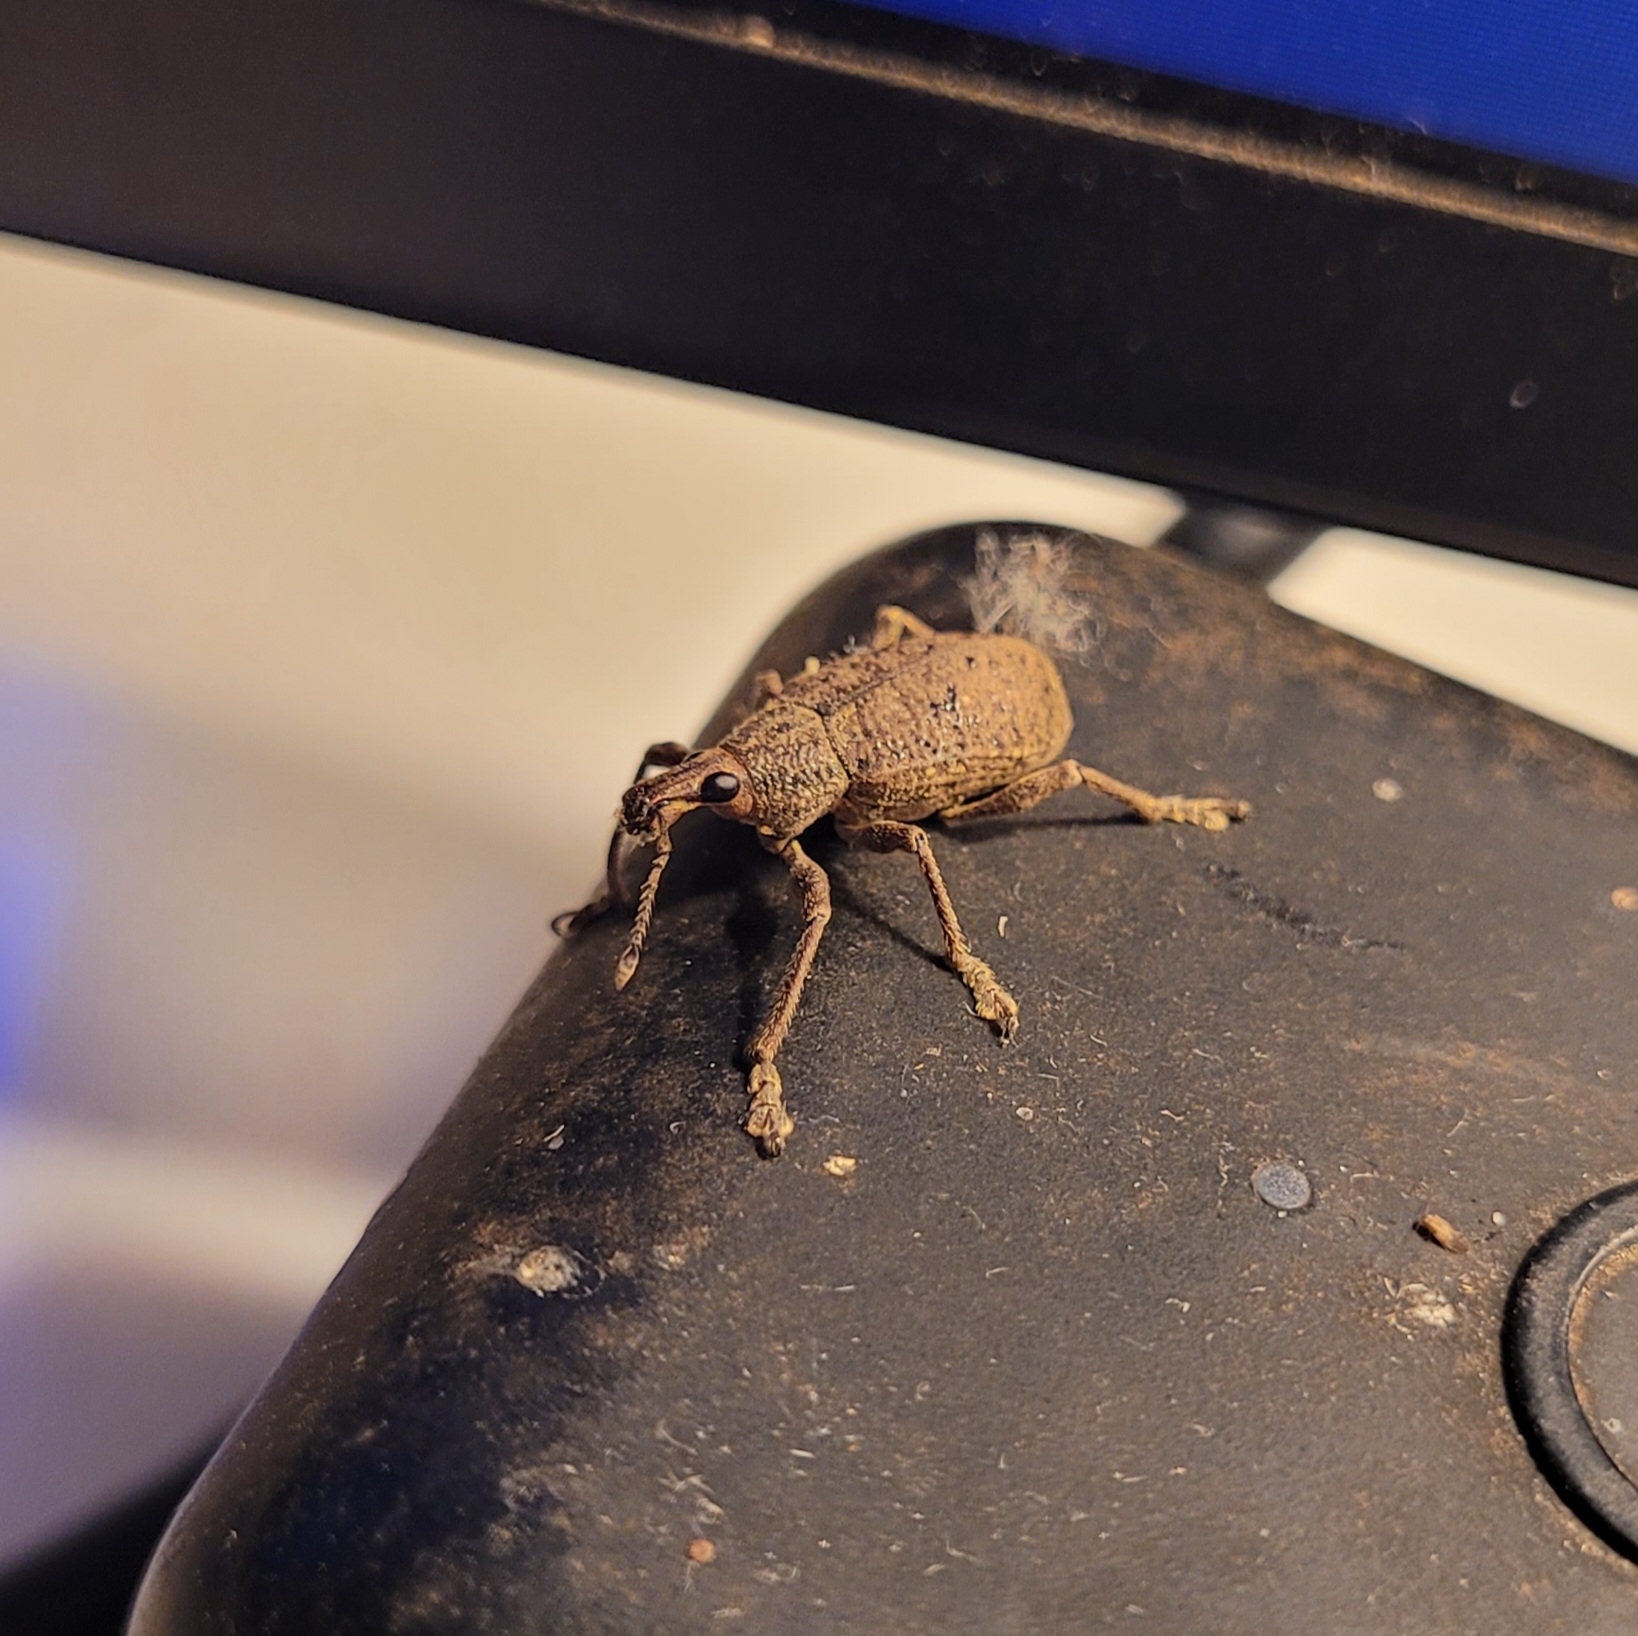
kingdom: Animalia
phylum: Arthropoda
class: Insecta
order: Coleoptera
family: Curculionidae
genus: Diaprepes
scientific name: Diaprepes maugei
